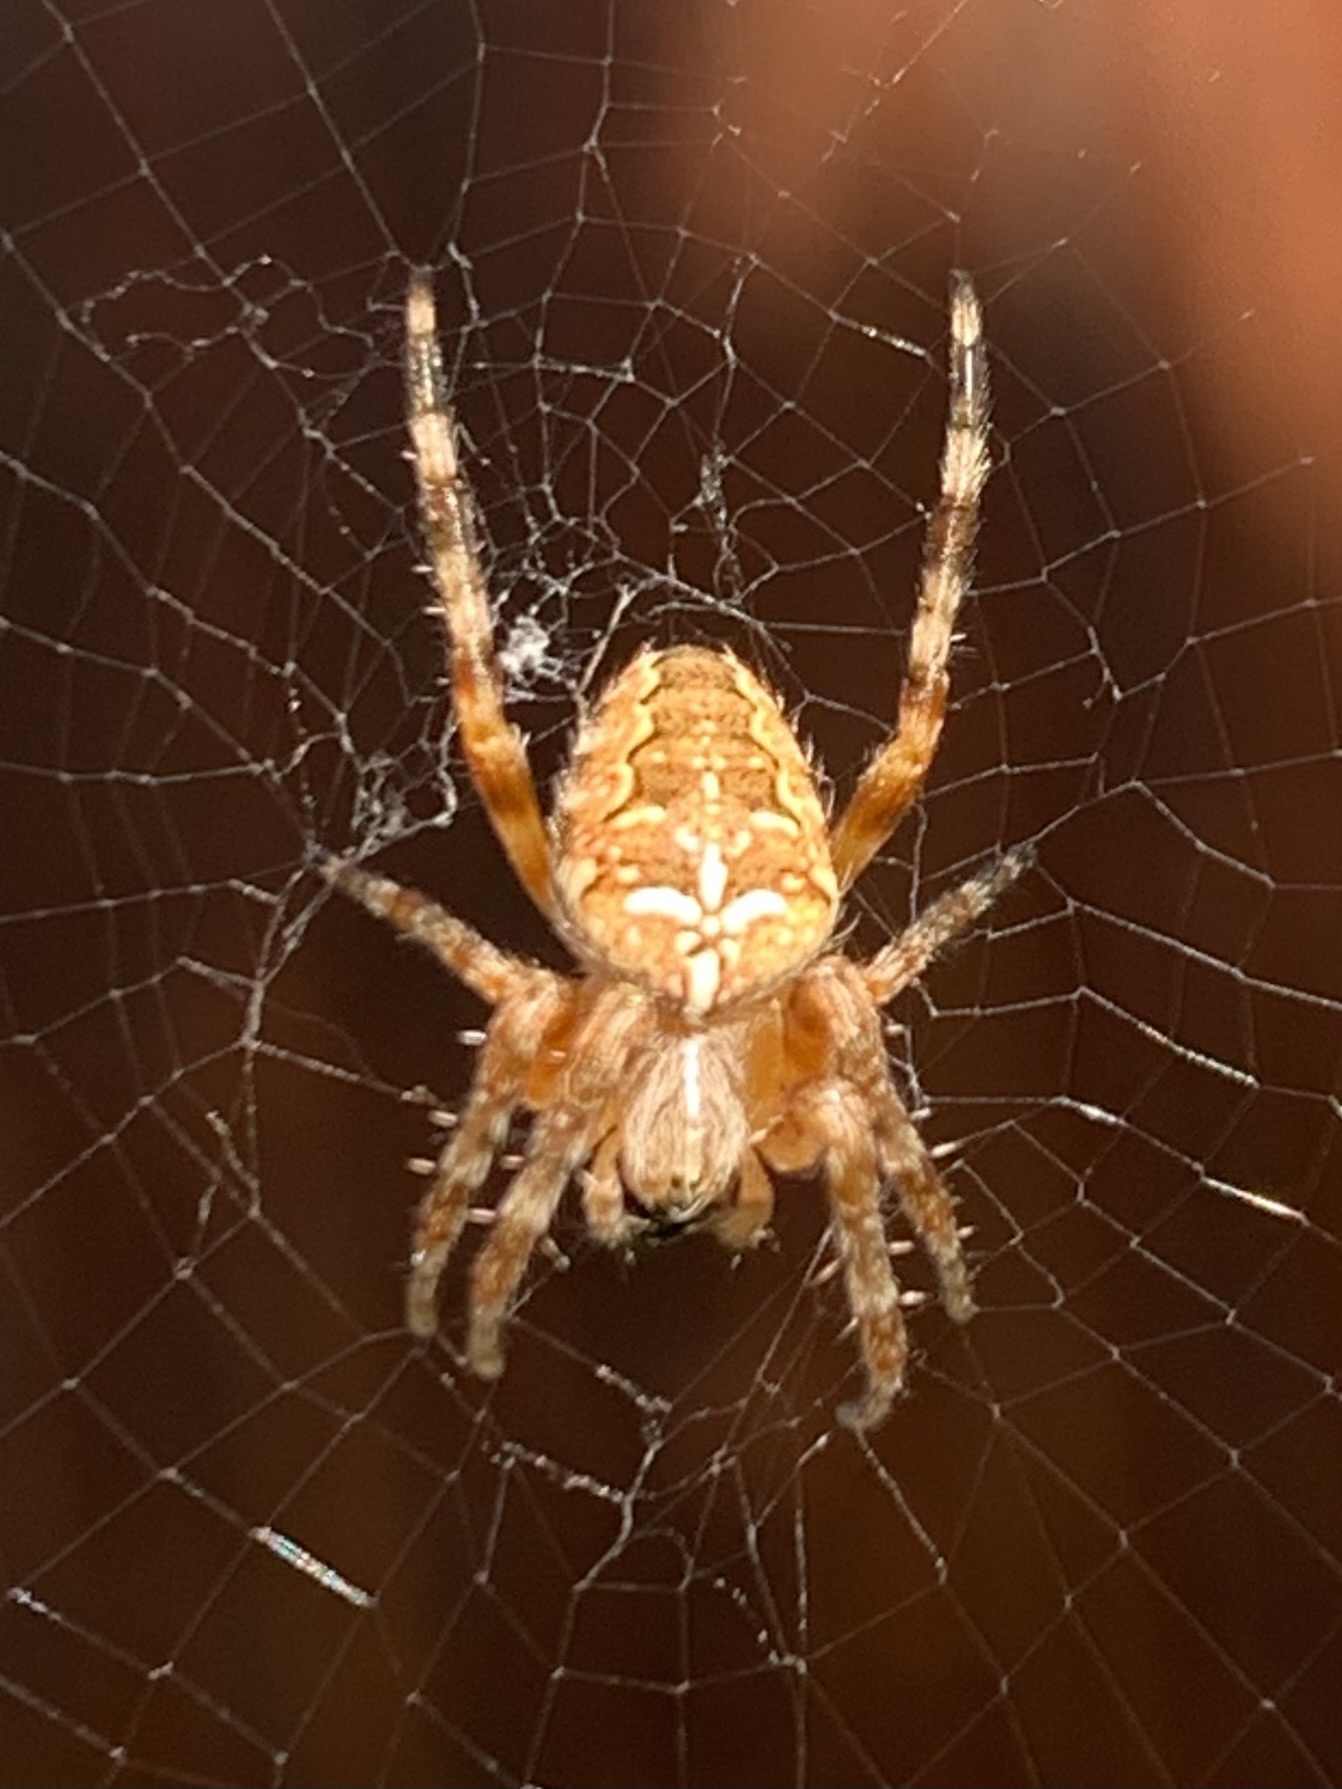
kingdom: Animalia
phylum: Arthropoda
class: Arachnida
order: Araneae
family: Araneidae
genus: Araneus
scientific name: Araneus diadematus
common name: Cross orbweaver
